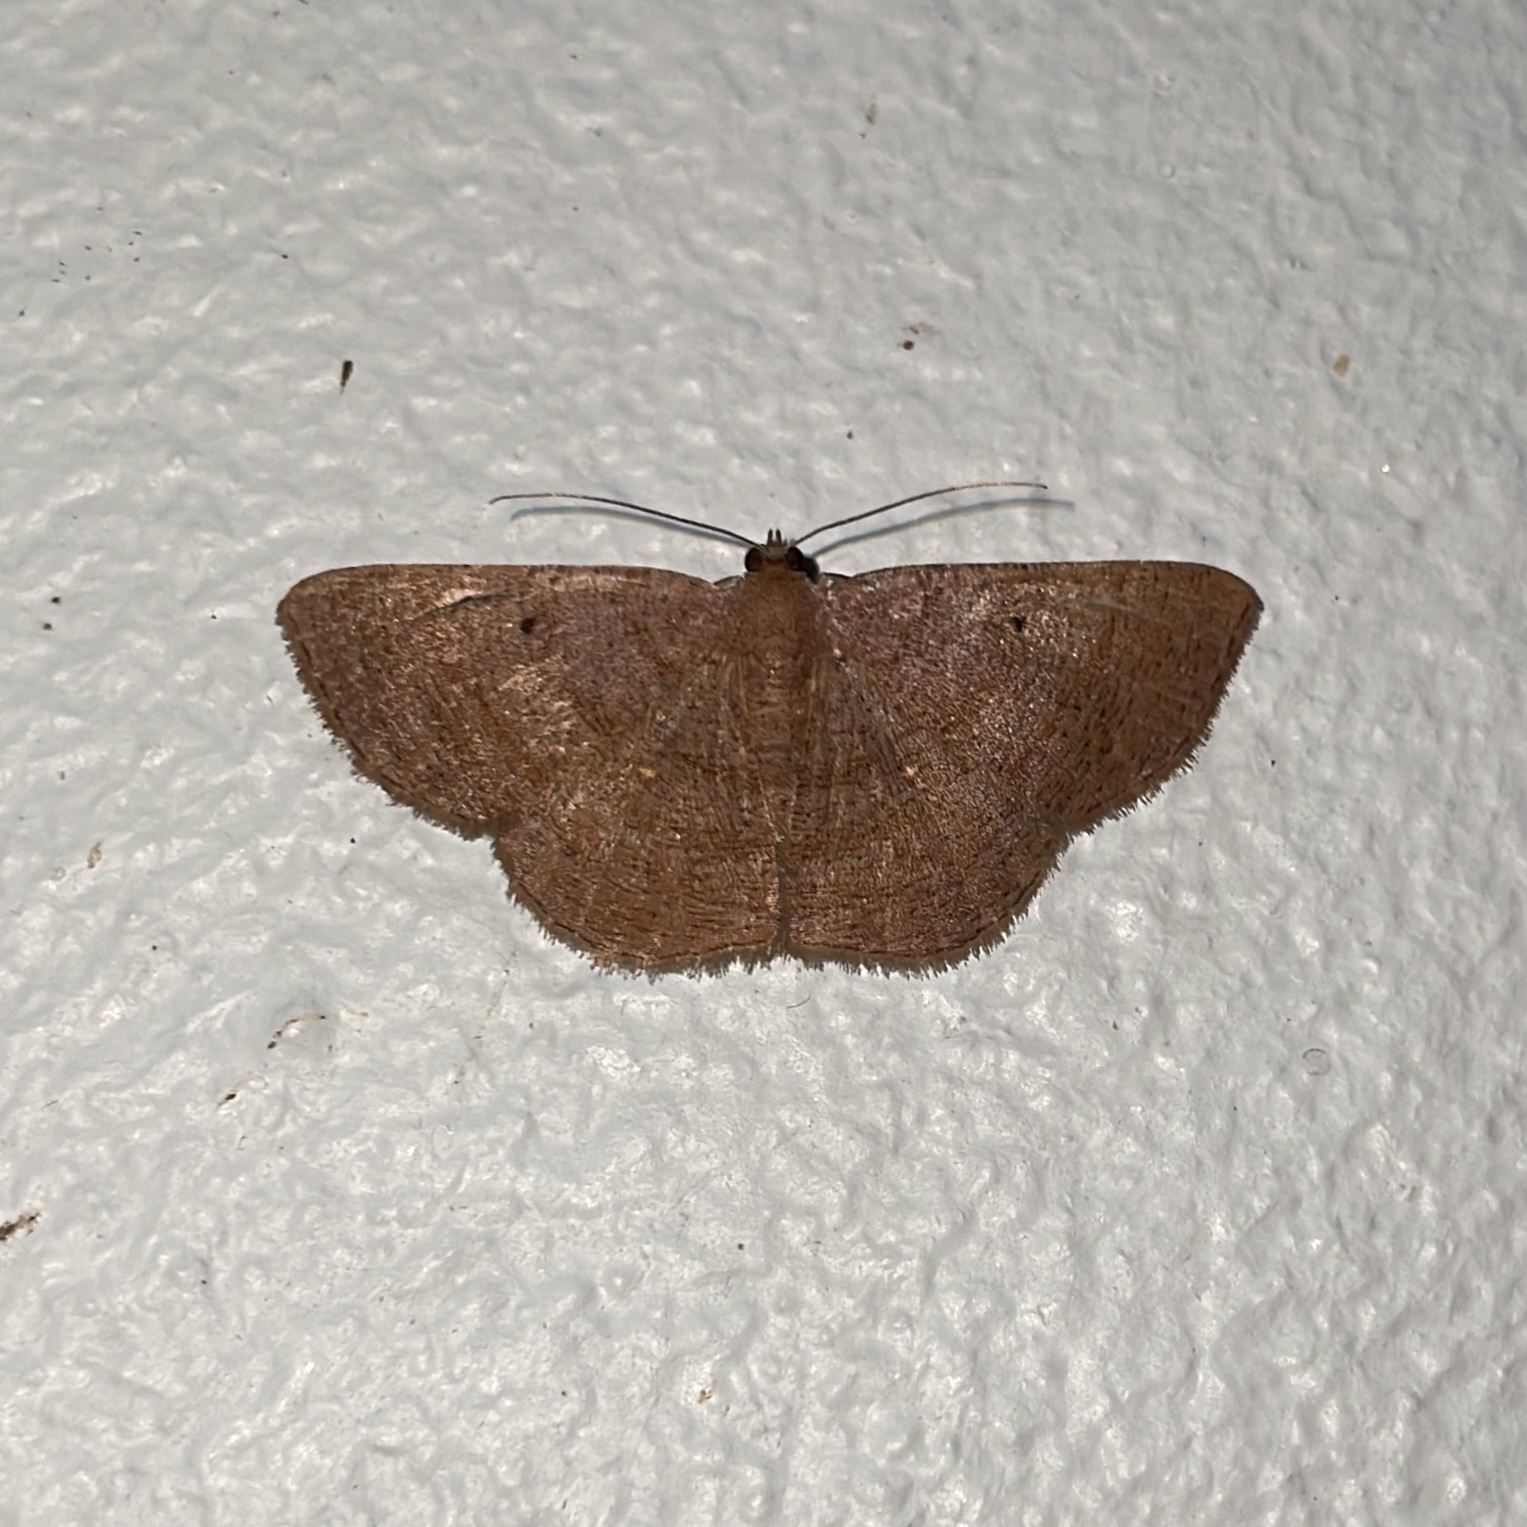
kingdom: Animalia
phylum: Arthropoda
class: Insecta
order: Lepidoptera
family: Geometridae
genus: Parilexia
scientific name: Parilexia nicetaria
